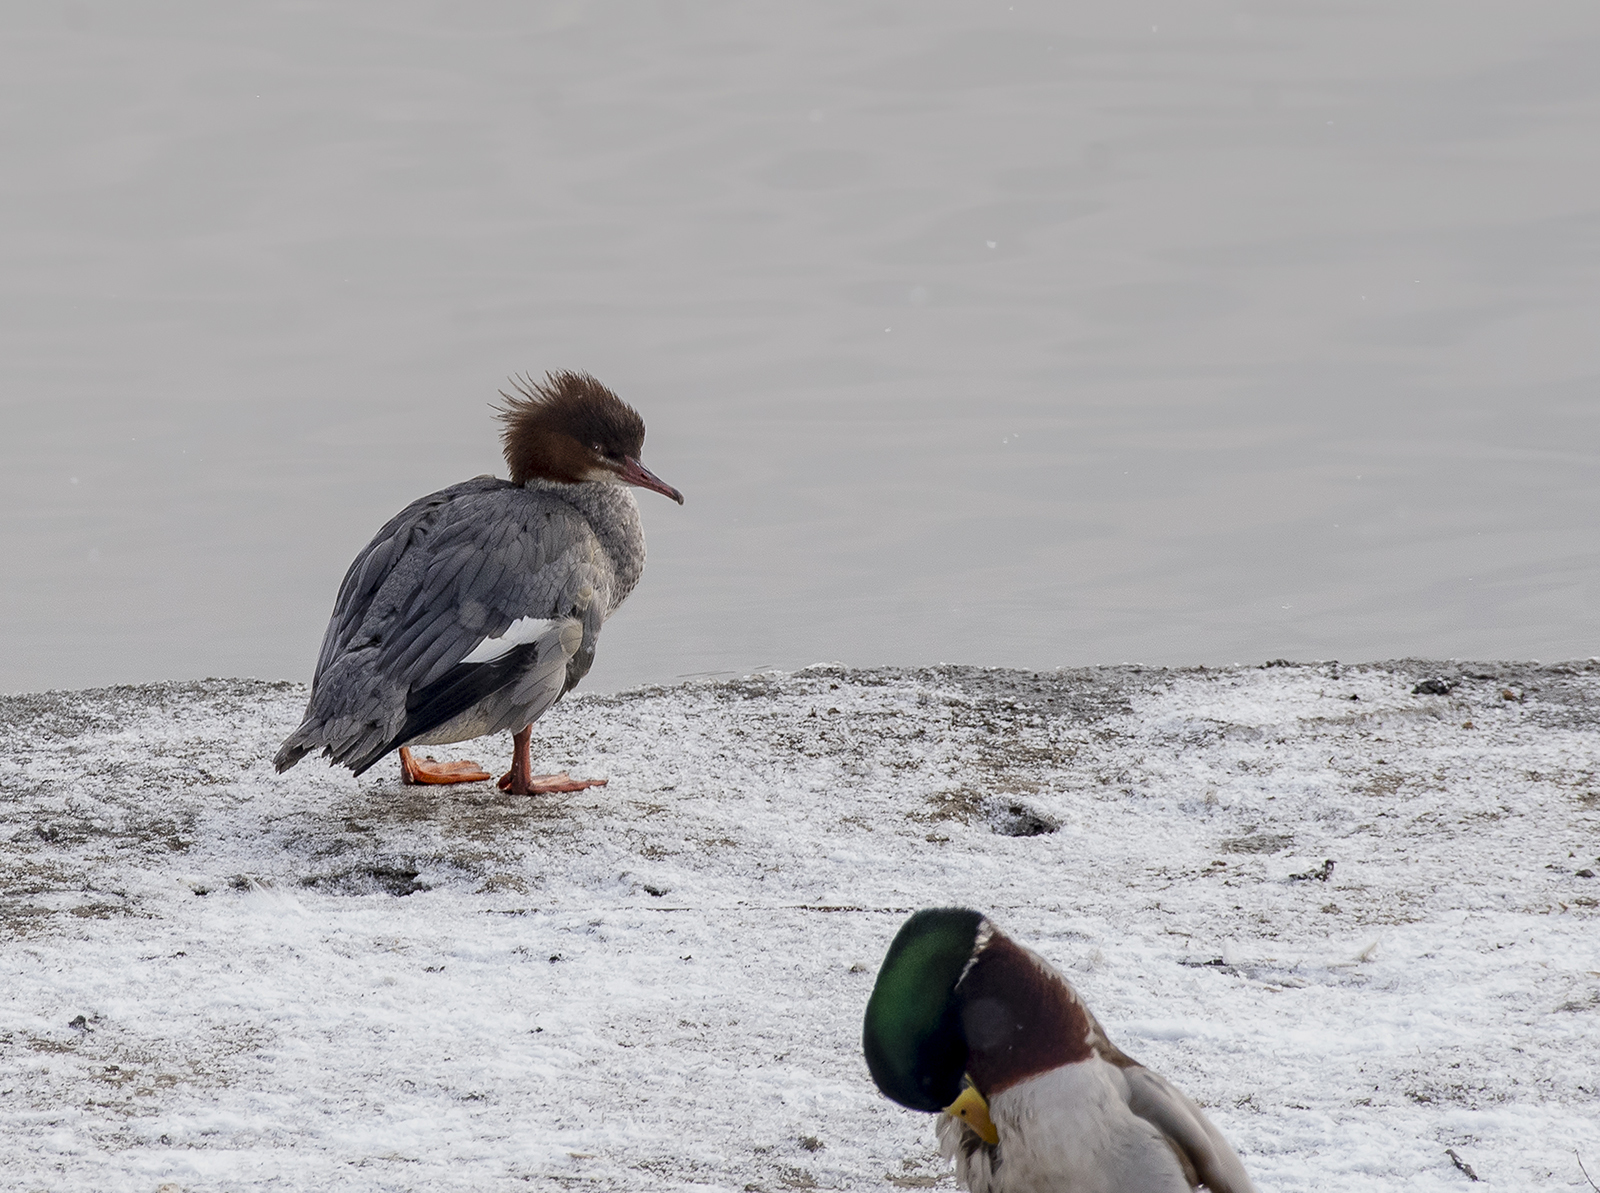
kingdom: Animalia
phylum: Chordata
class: Aves
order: Anseriformes
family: Anatidae
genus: Mergus
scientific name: Mergus merganser
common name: Common merganser
